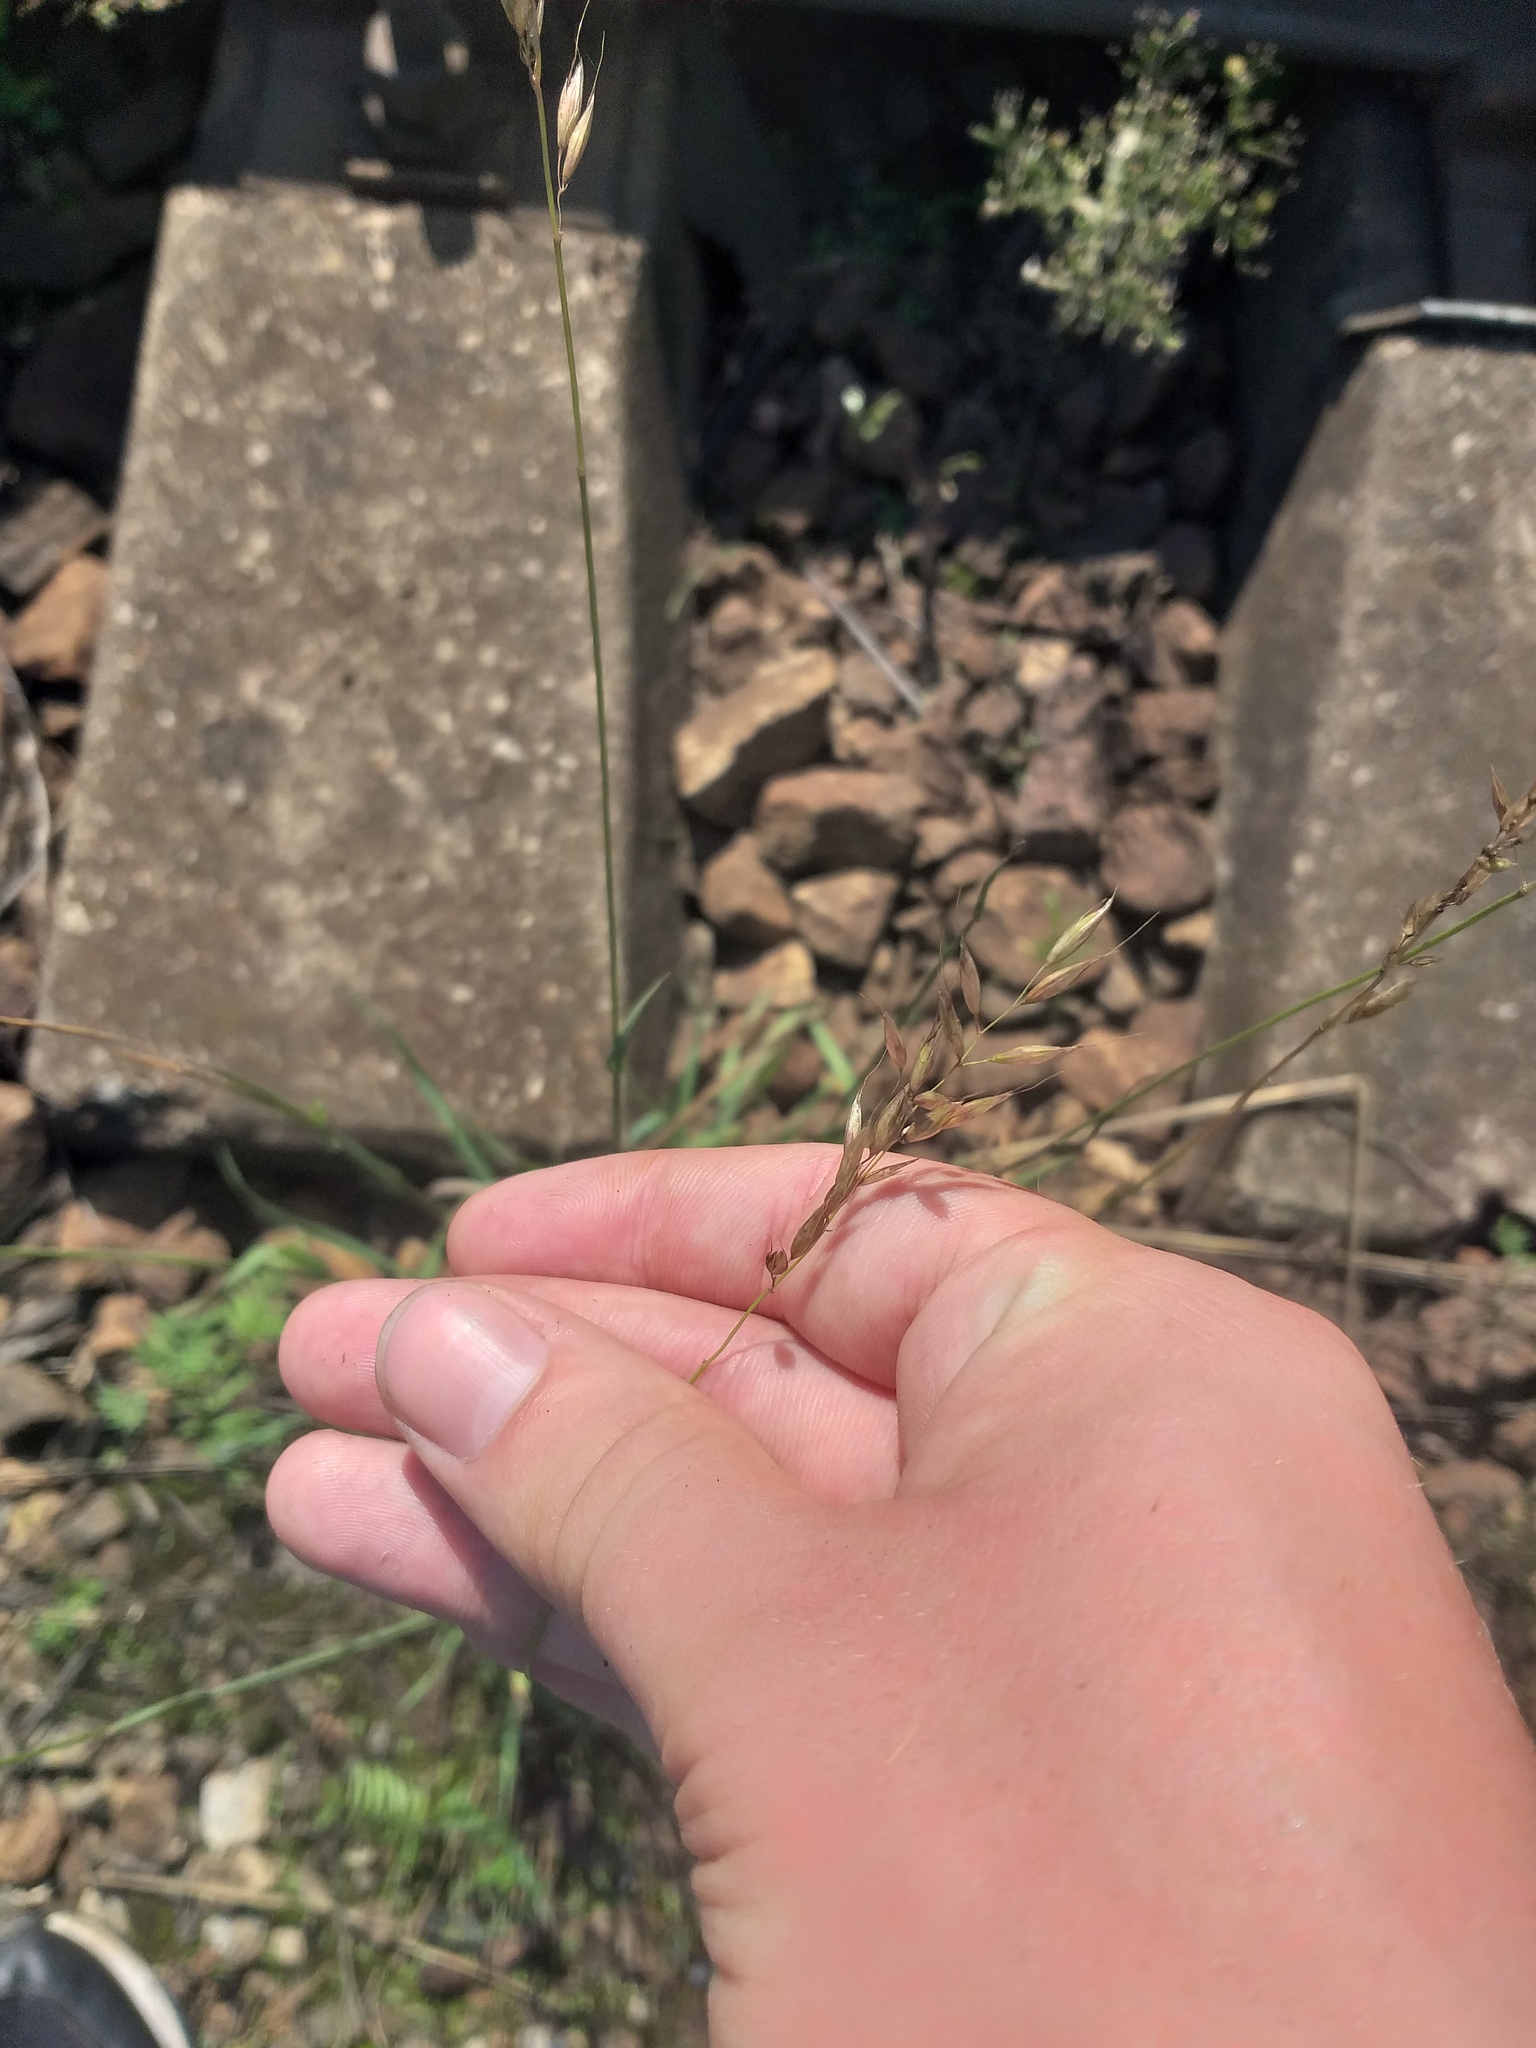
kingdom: Plantae
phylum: Tracheophyta
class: Liliopsida
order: Poales
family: Poaceae
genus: Arrhenatherum
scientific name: Arrhenatherum elatius
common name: Tall oatgrass
